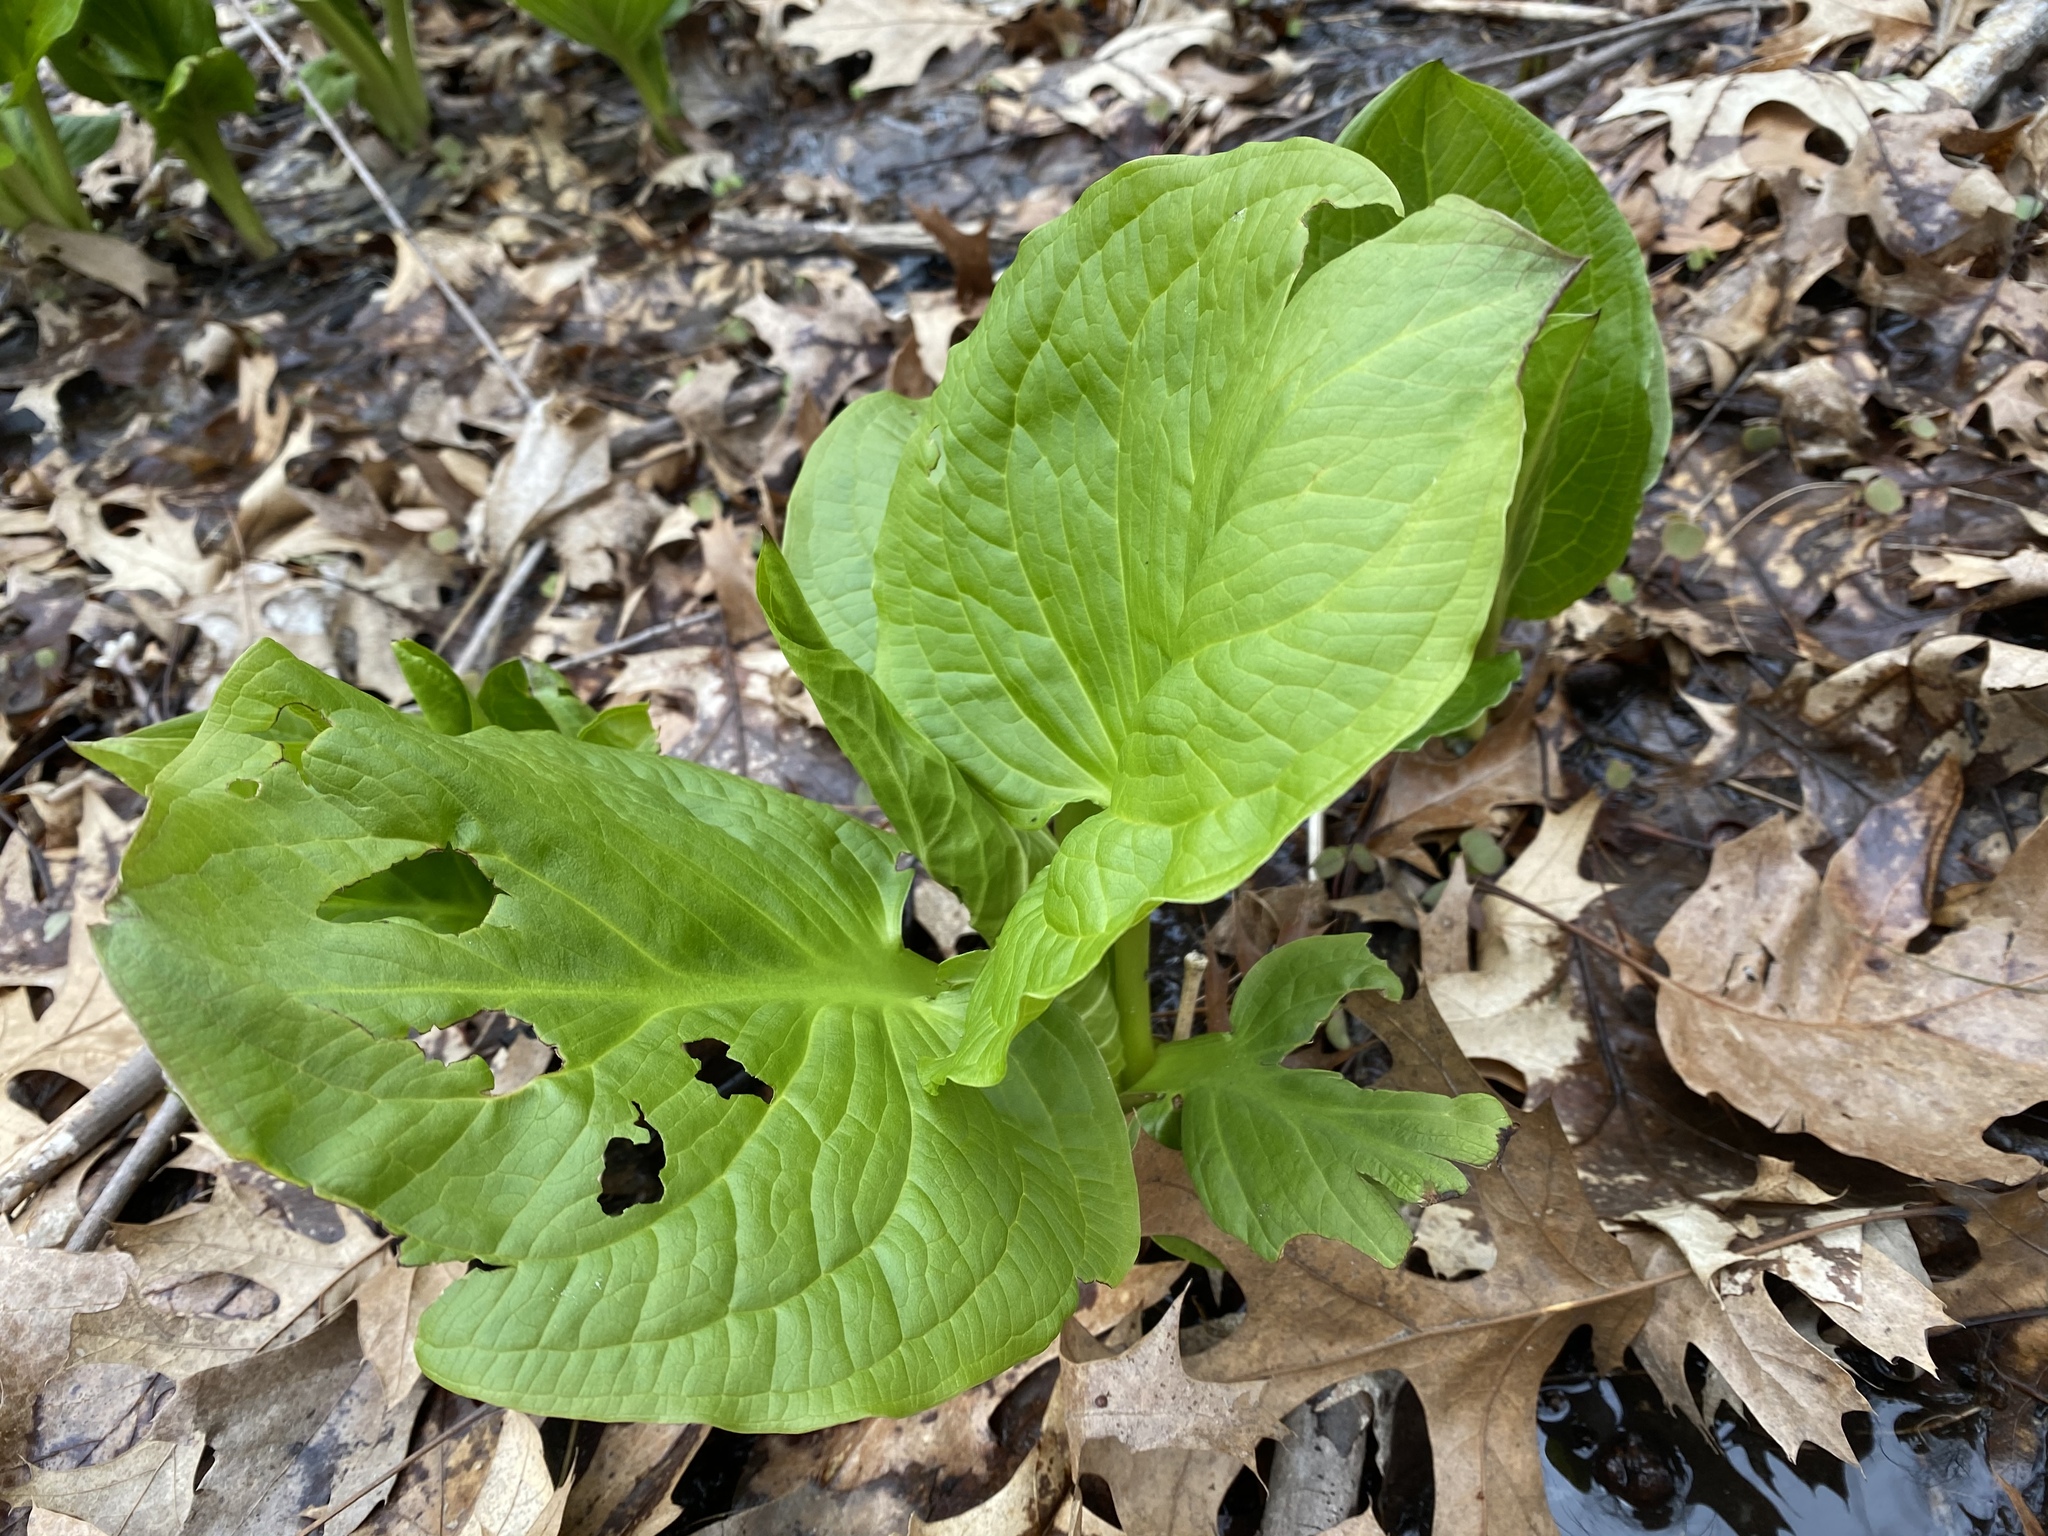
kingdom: Plantae
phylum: Tracheophyta
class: Liliopsida
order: Alismatales
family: Araceae
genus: Symplocarpus
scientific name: Symplocarpus foetidus
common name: Eastern skunk cabbage
